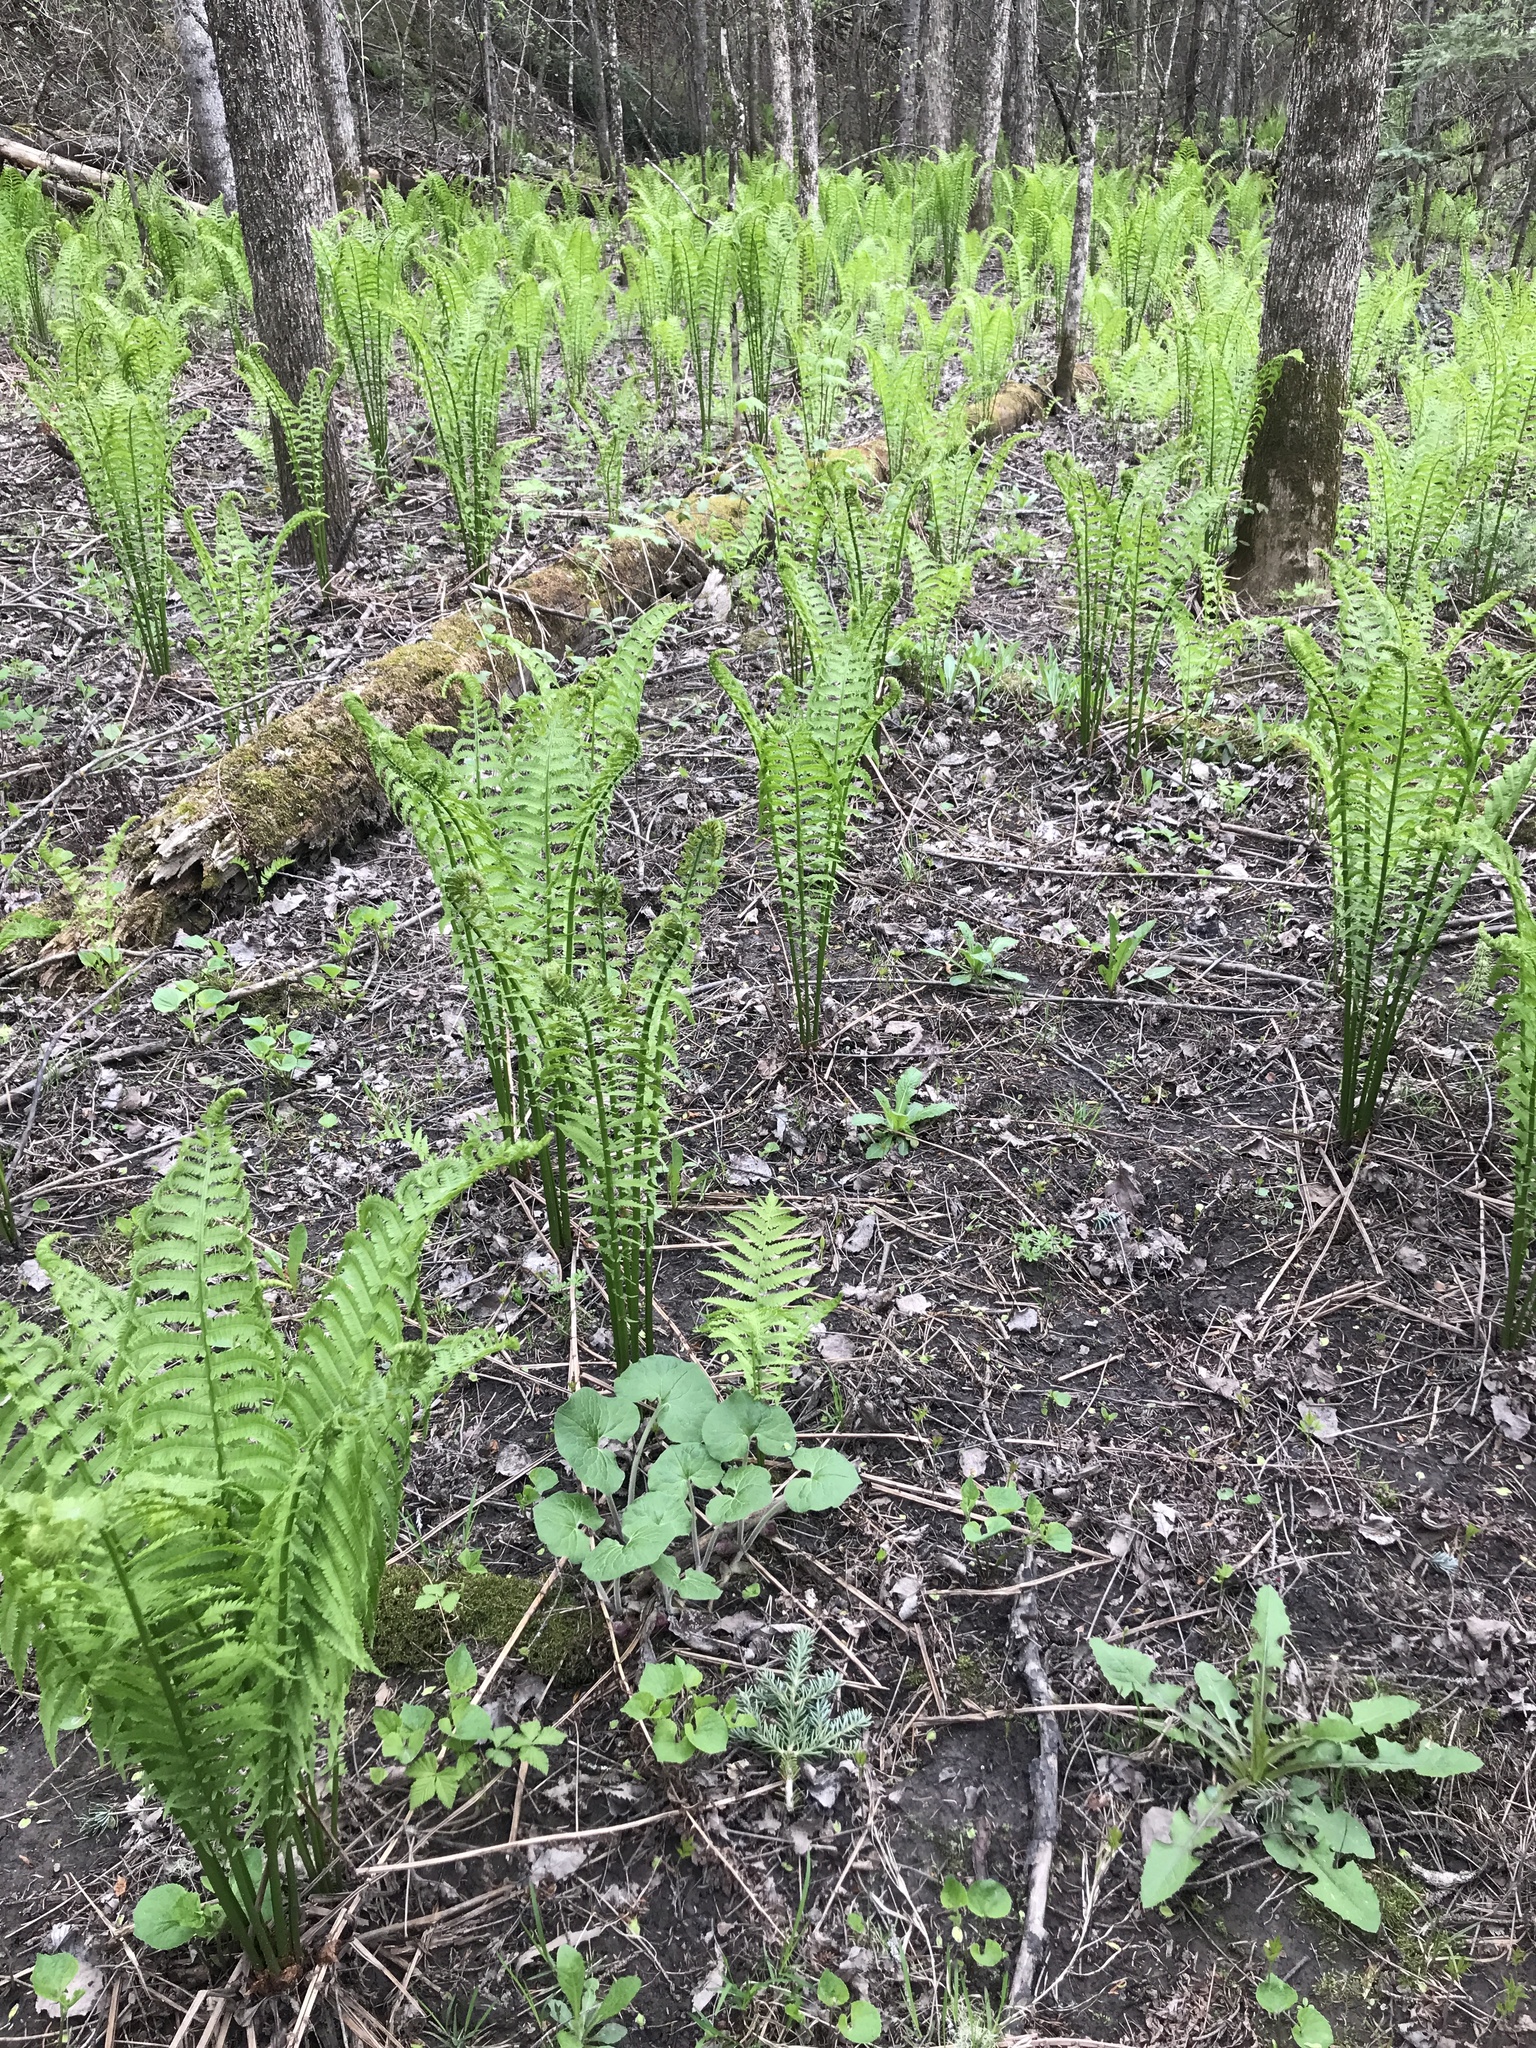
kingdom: Plantae
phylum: Tracheophyta
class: Polypodiopsida
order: Polypodiales
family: Onocleaceae
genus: Matteuccia
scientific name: Matteuccia struthiopteris
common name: Ostrich fern
